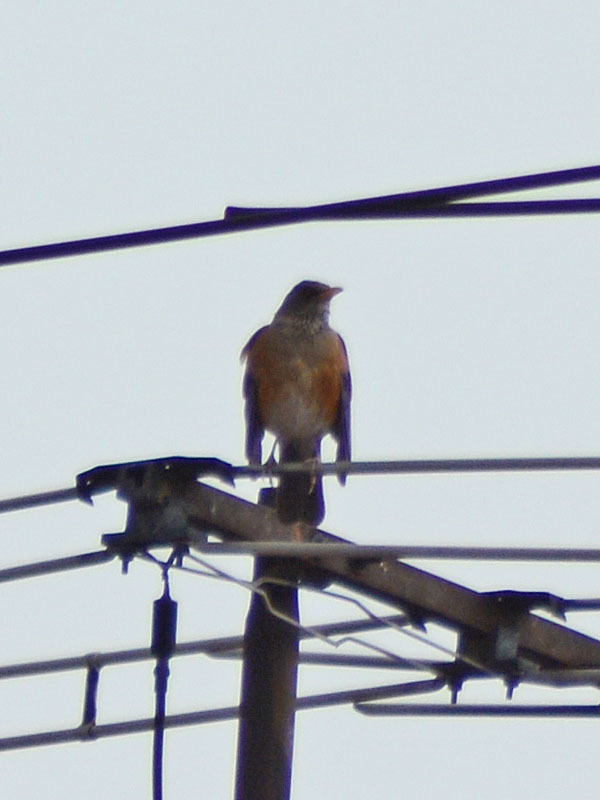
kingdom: Animalia
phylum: Chordata
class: Aves
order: Passeriformes
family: Turdidae
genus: Turdus
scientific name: Turdus rufopalliatus
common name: Rufous-backed robin
